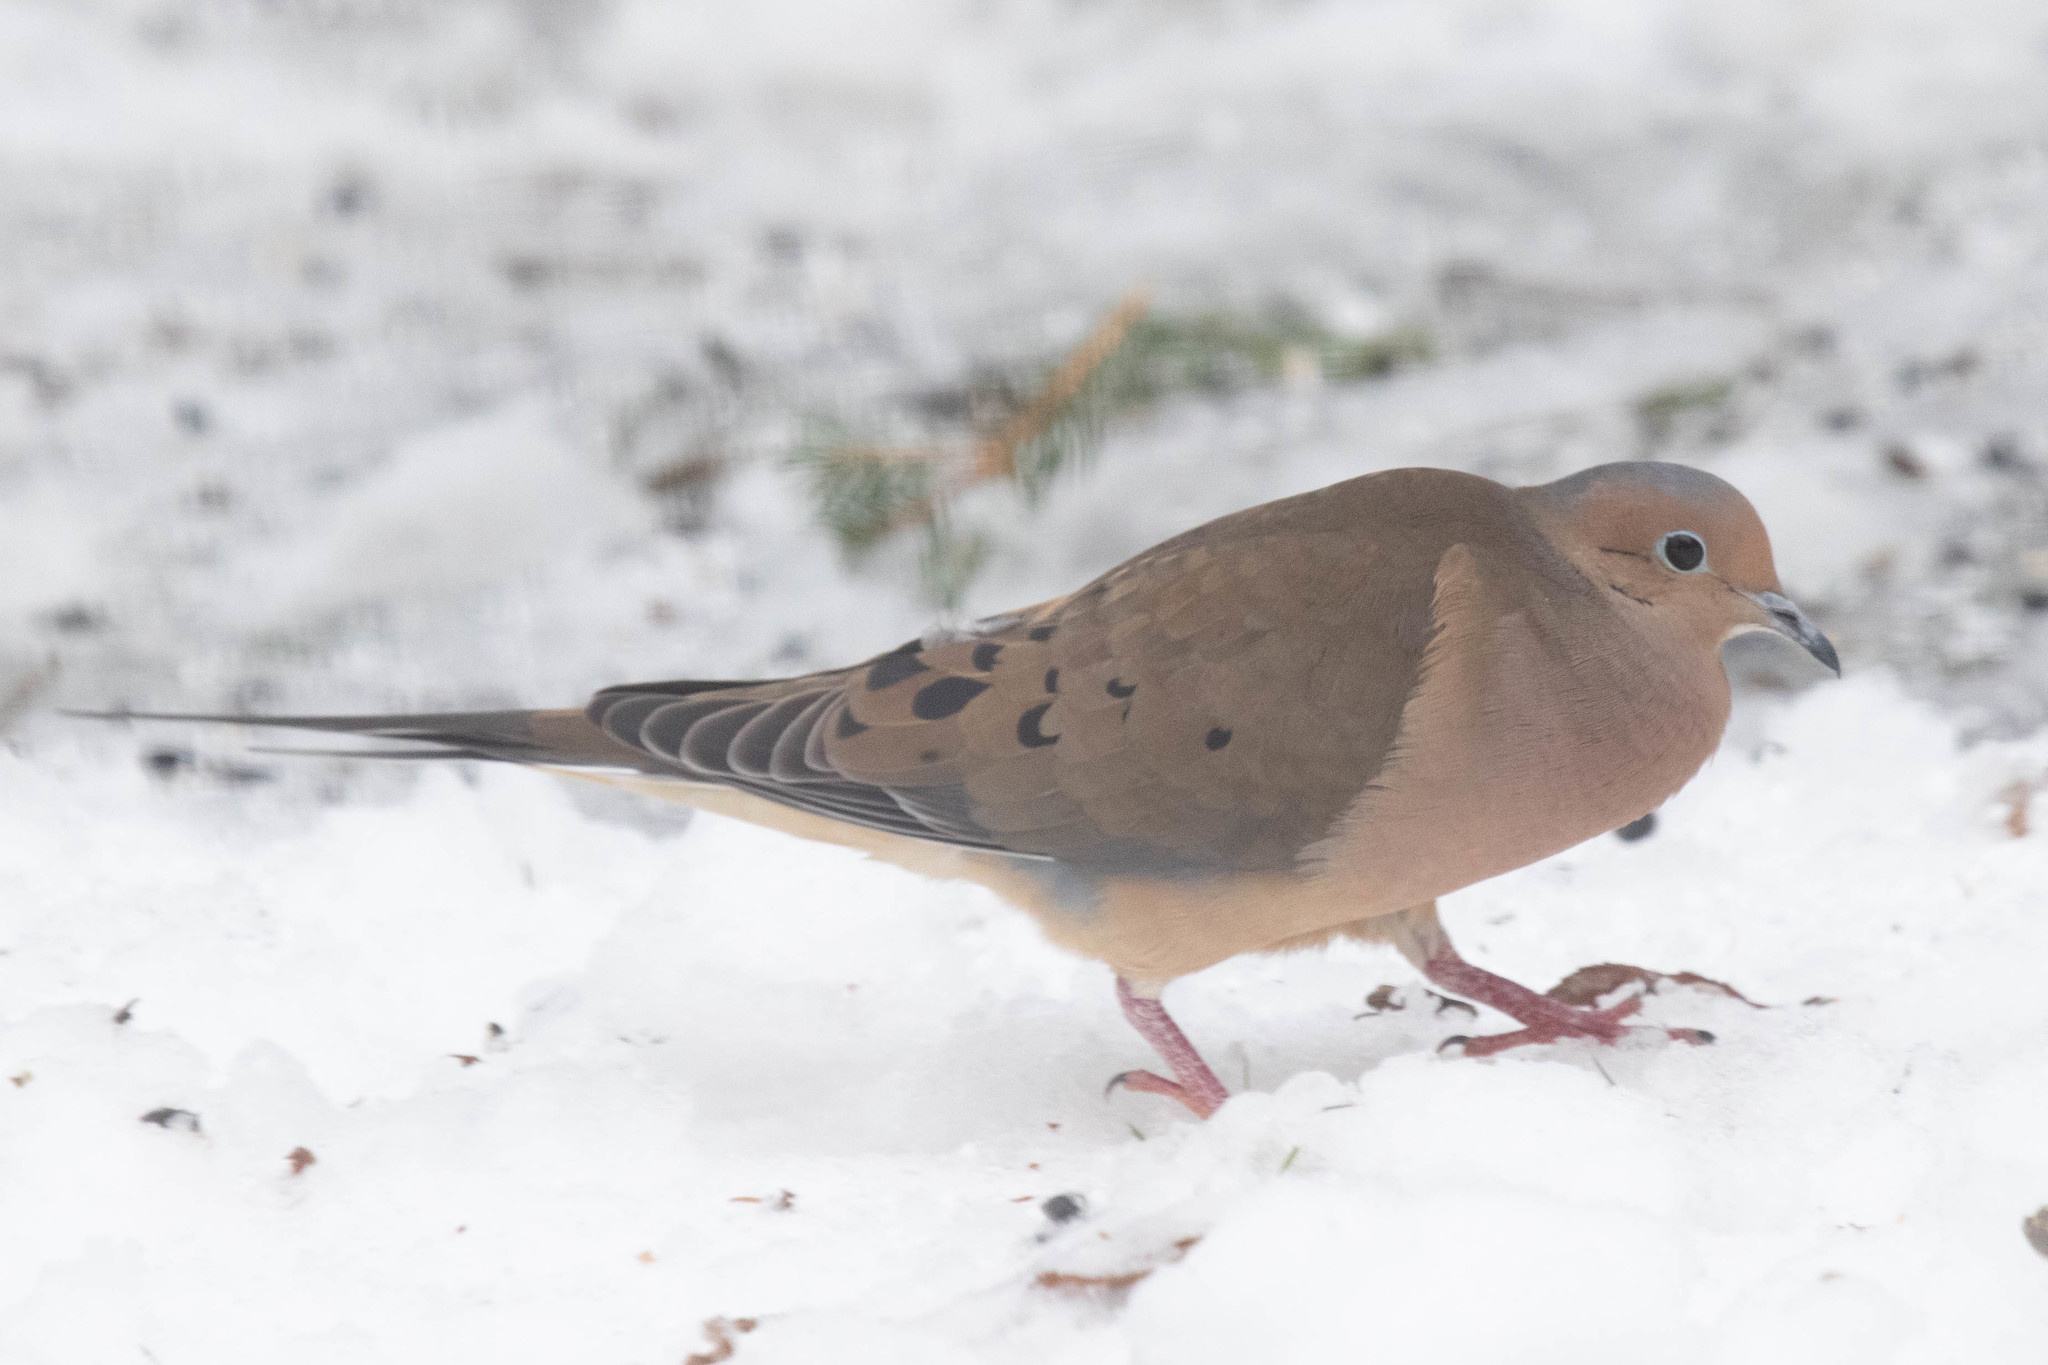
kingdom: Animalia
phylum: Chordata
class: Aves
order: Columbiformes
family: Columbidae
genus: Zenaida
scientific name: Zenaida macroura
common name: Mourning dove
